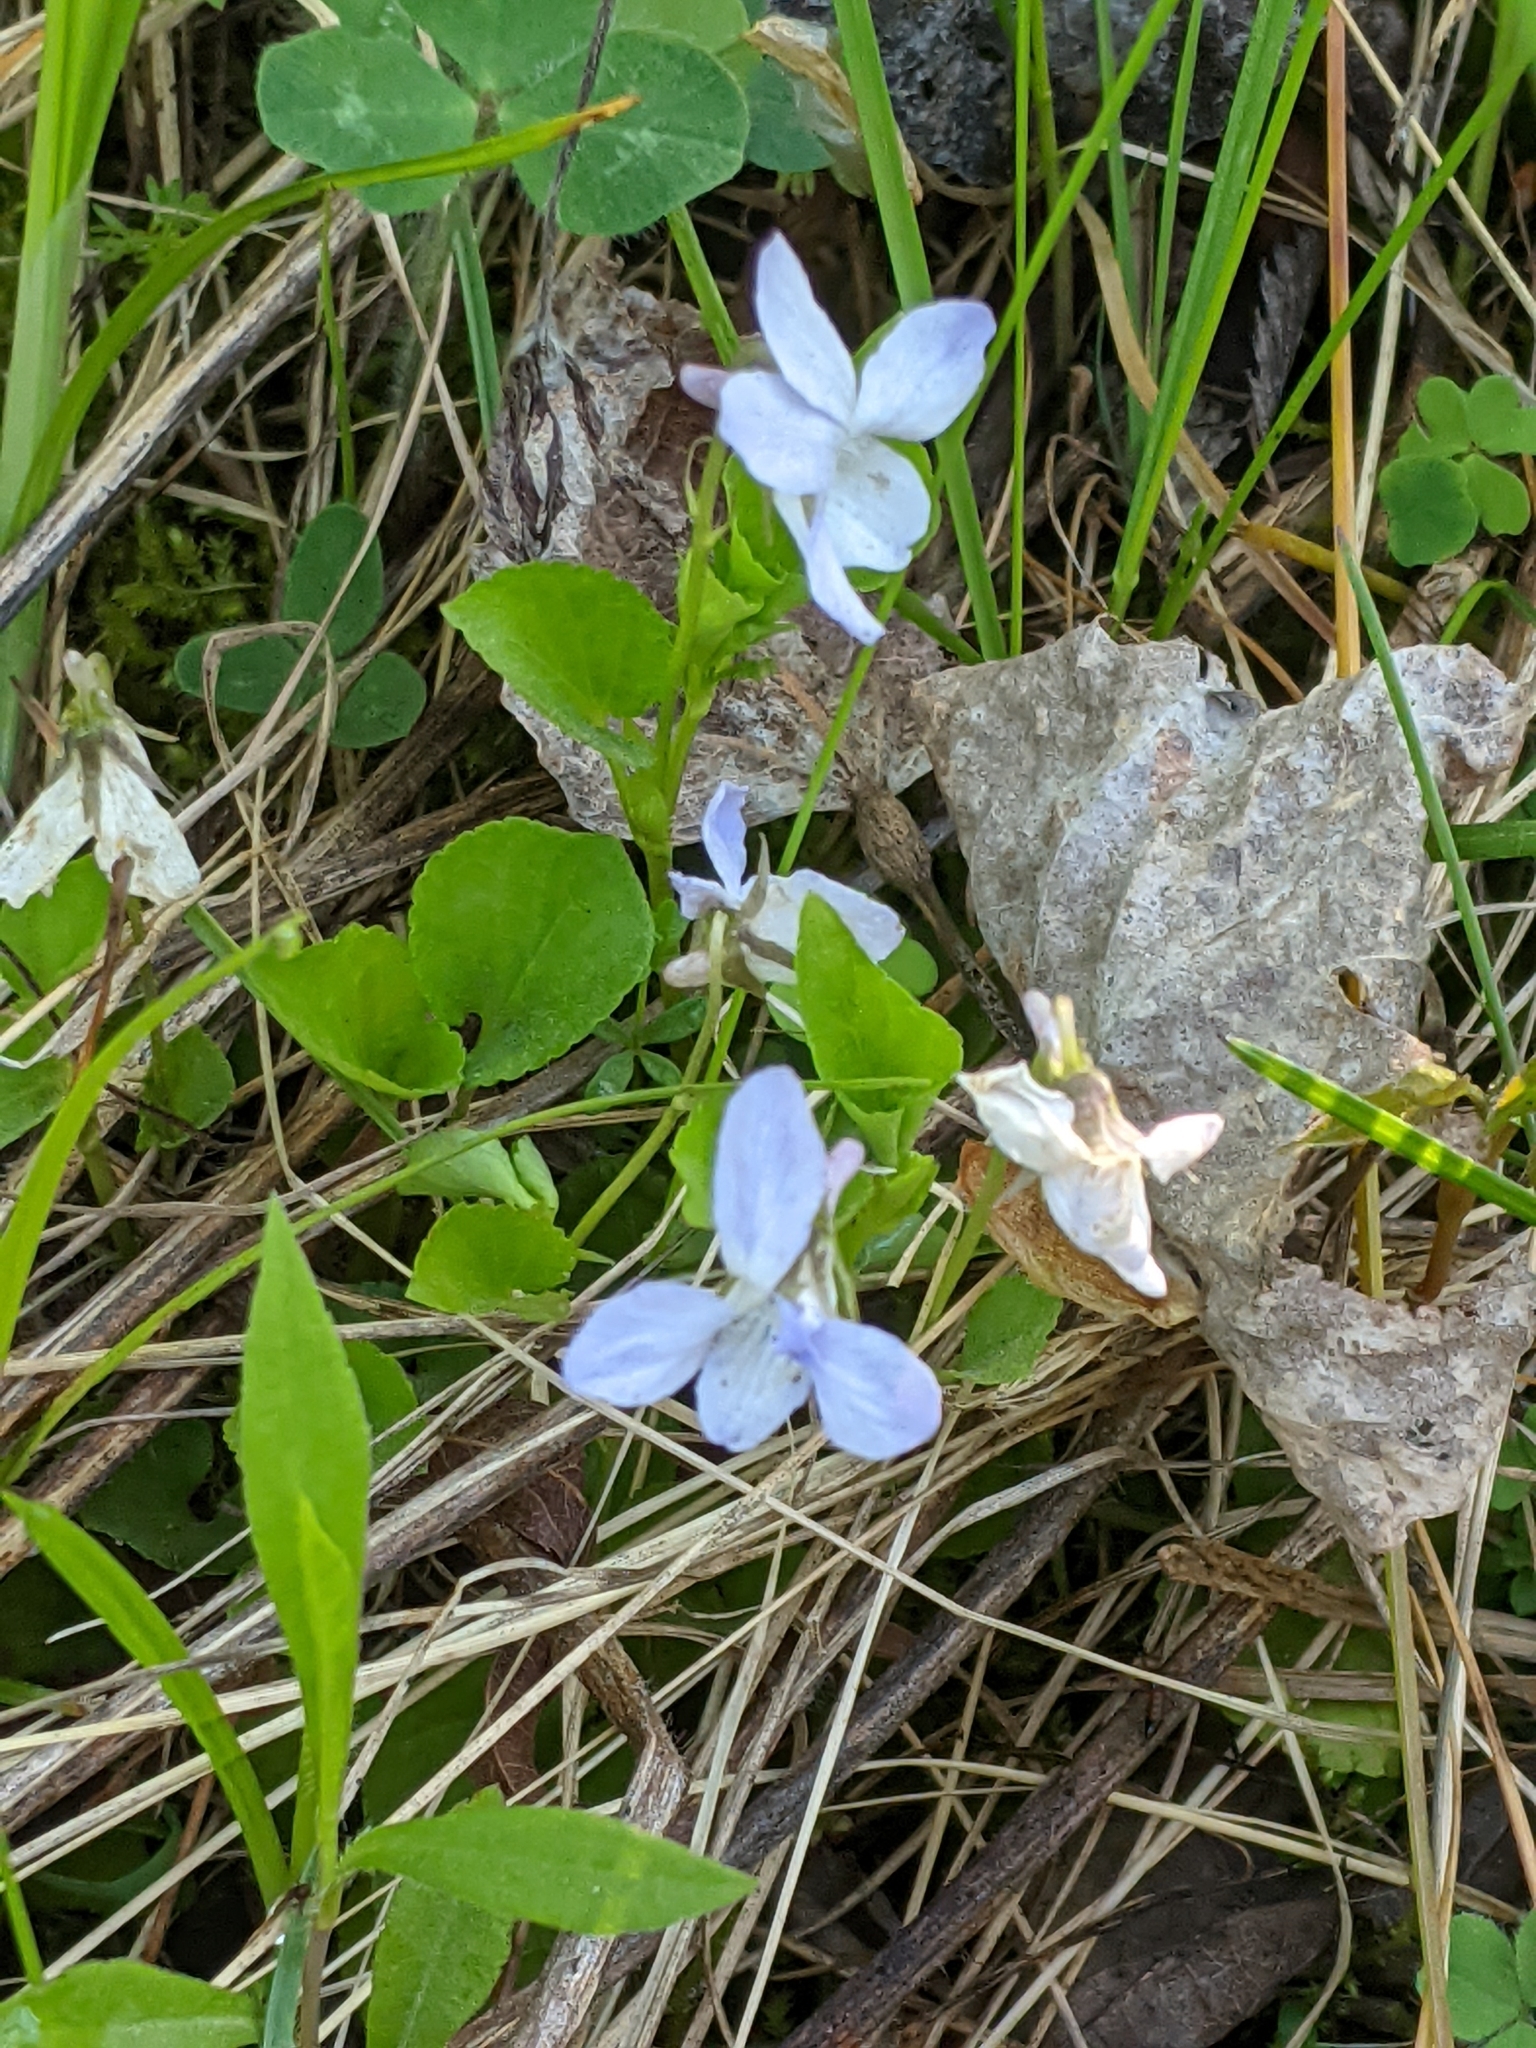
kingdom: Plantae
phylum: Tracheophyta
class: Magnoliopsida
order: Malpighiales
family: Violaceae
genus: Viola
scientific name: Viola labradorica
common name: Labrador violet
